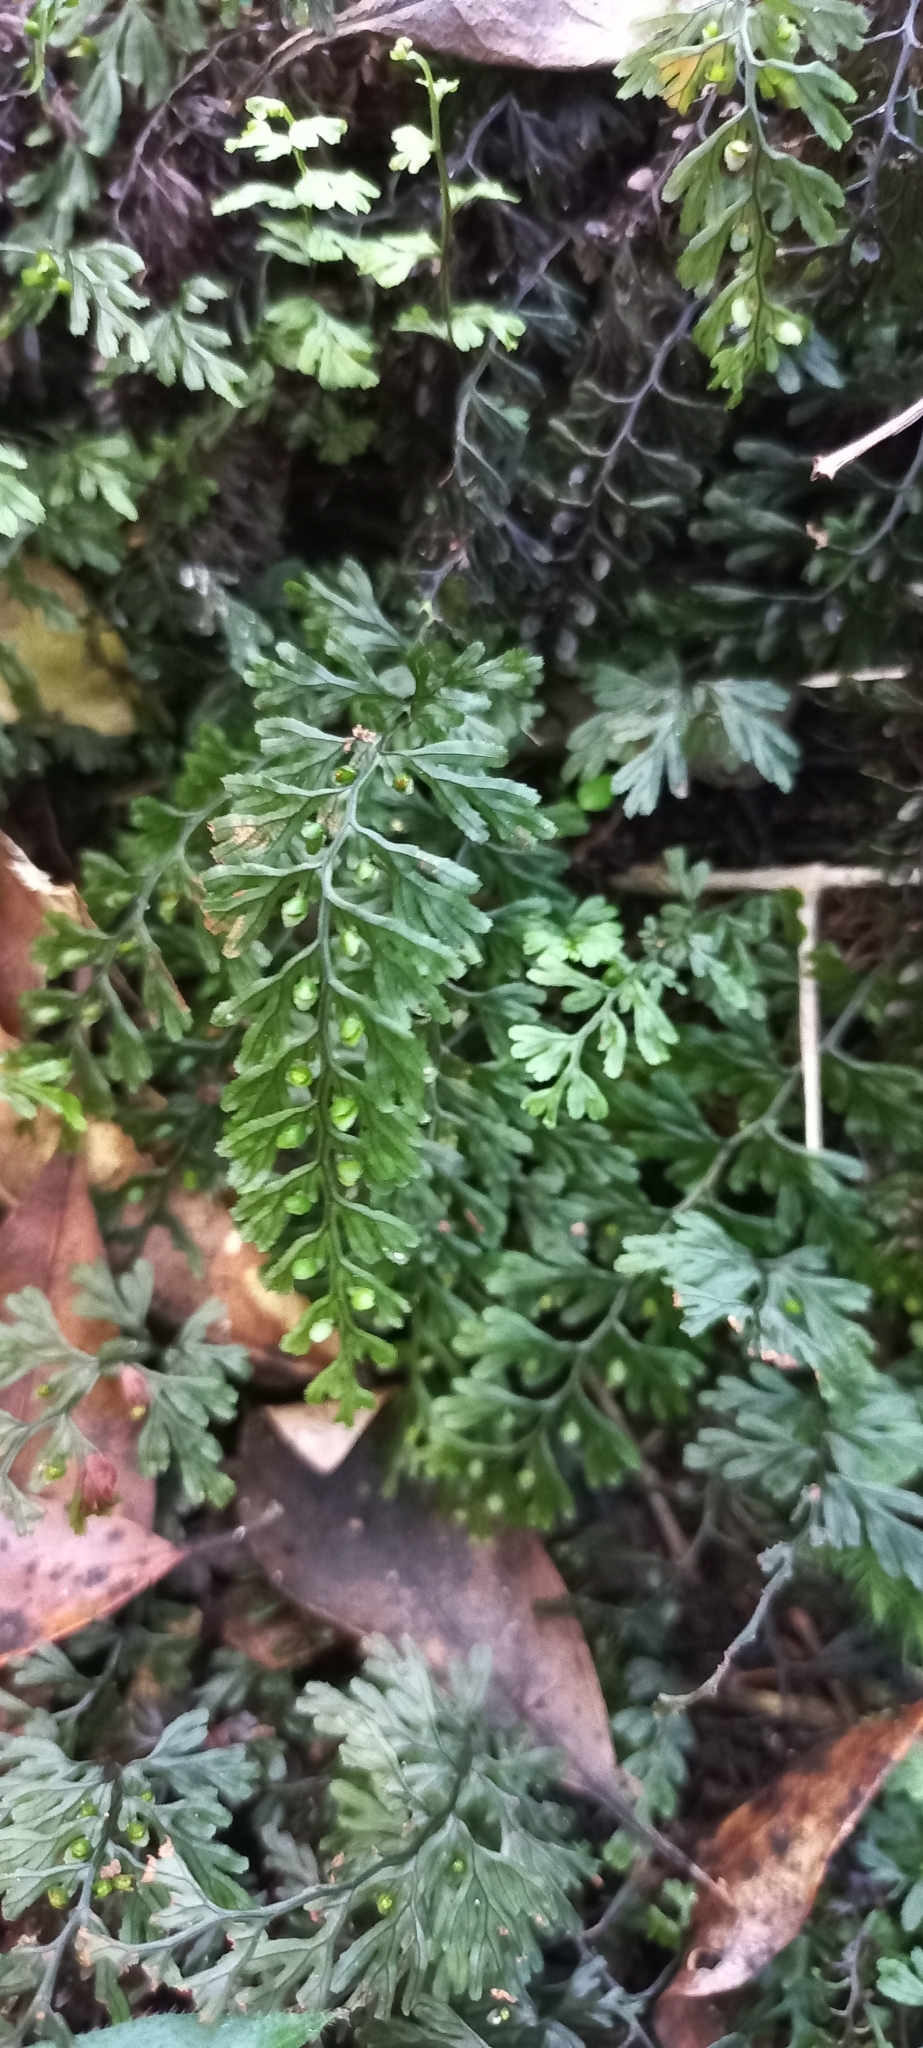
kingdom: Plantae
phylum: Tracheophyta
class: Polypodiopsida
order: Hymenophyllales
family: Hymenophyllaceae
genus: Hymenophyllum
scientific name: Hymenophyllum tunbrigense
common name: Tunbridge filmy fern
